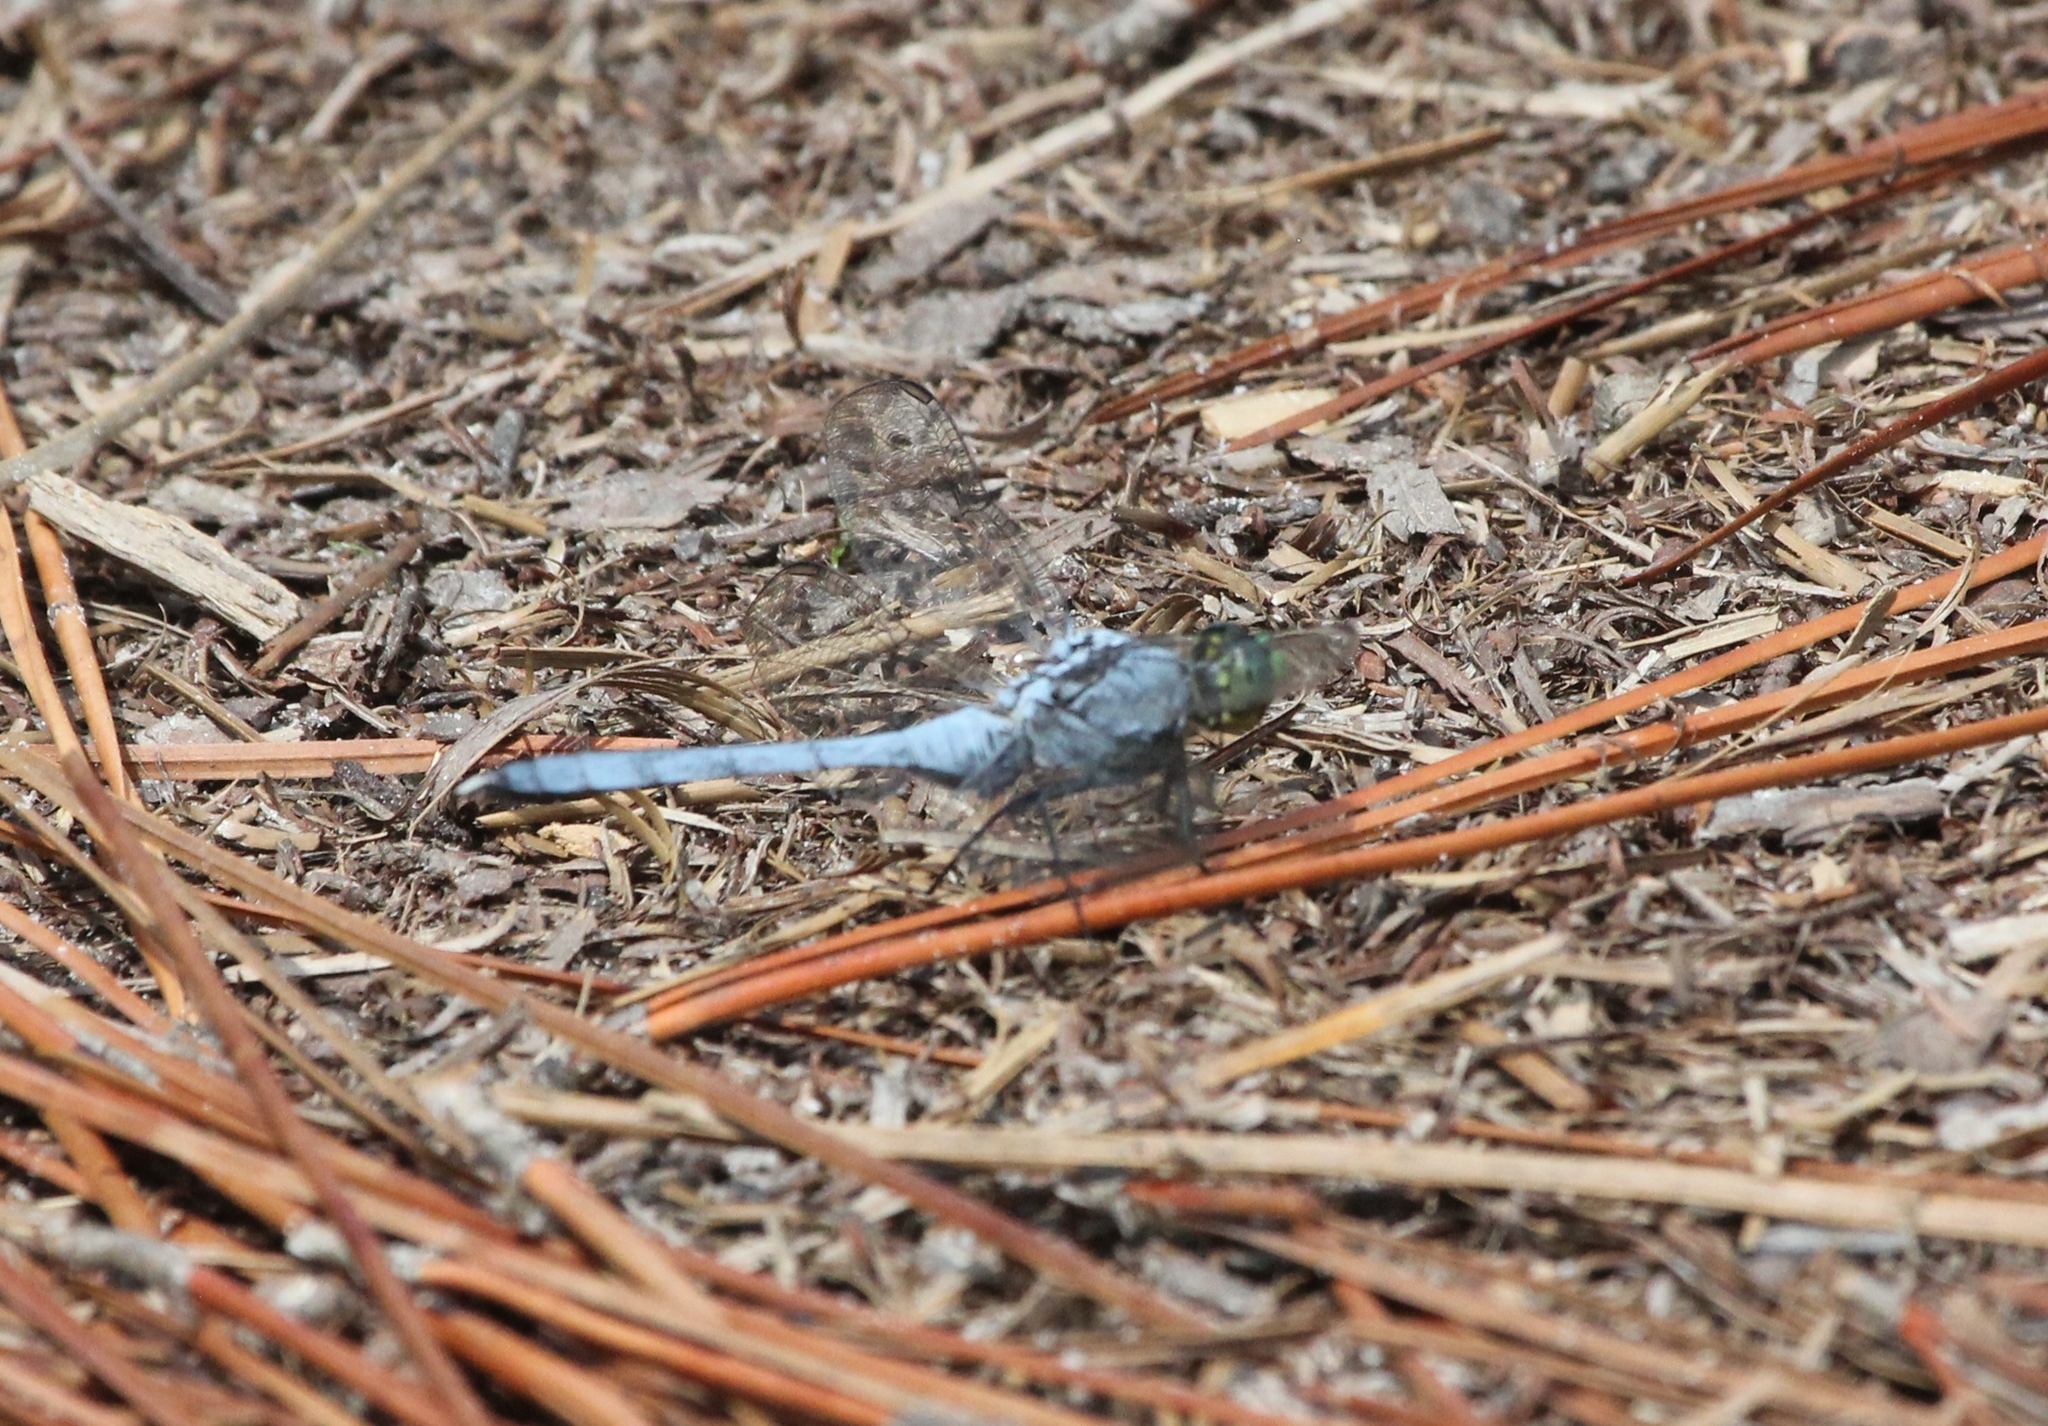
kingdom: Animalia
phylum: Arthropoda
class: Insecta
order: Odonata
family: Libellulidae
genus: Erythemis
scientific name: Erythemis simplicicollis
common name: Eastern pondhawk
